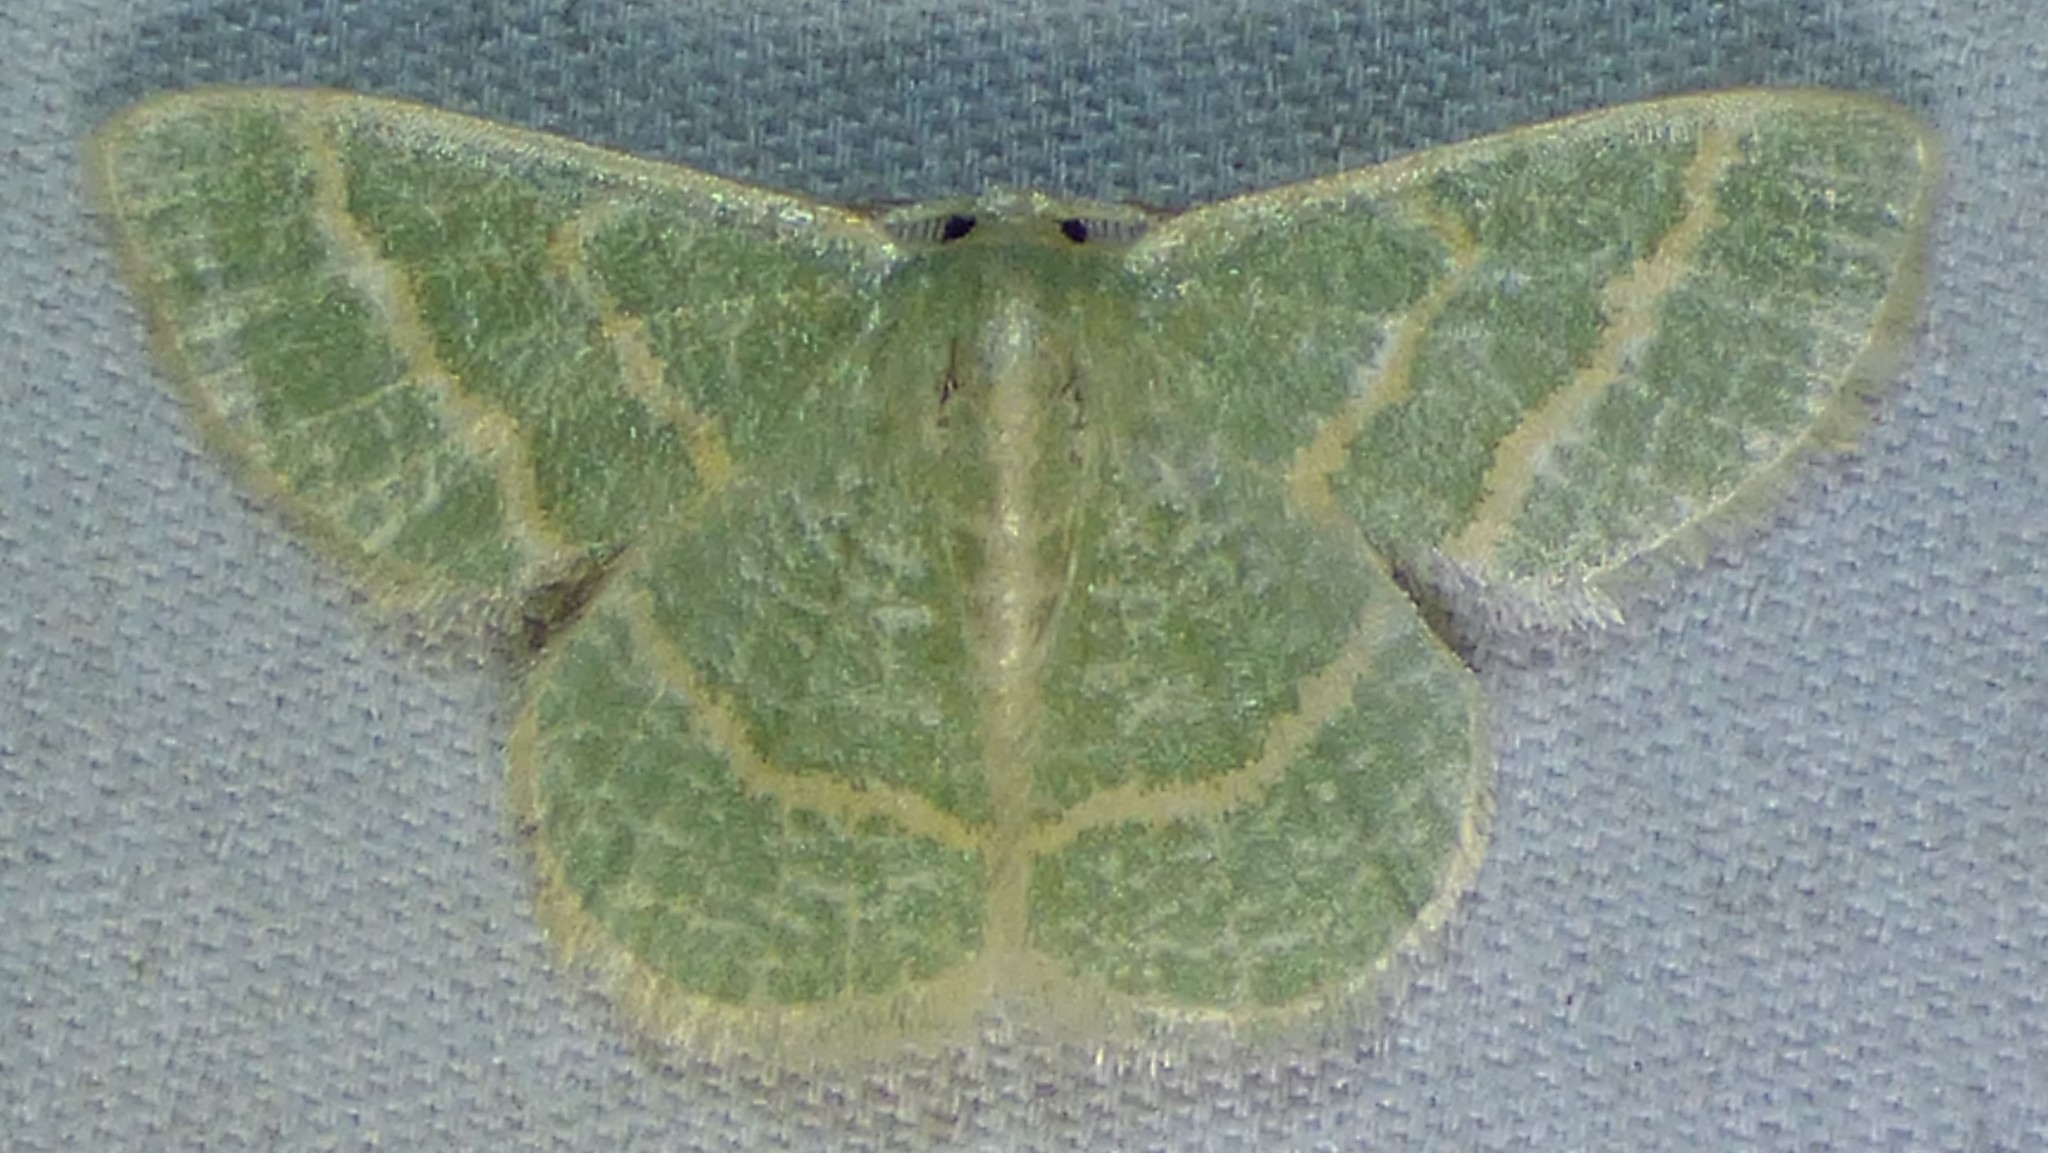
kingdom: Animalia
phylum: Arthropoda
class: Insecta
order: Lepidoptera
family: Geometridae
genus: Chlorochlamys
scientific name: Chlorochlamys chloroleucaria
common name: Blackberry looper
